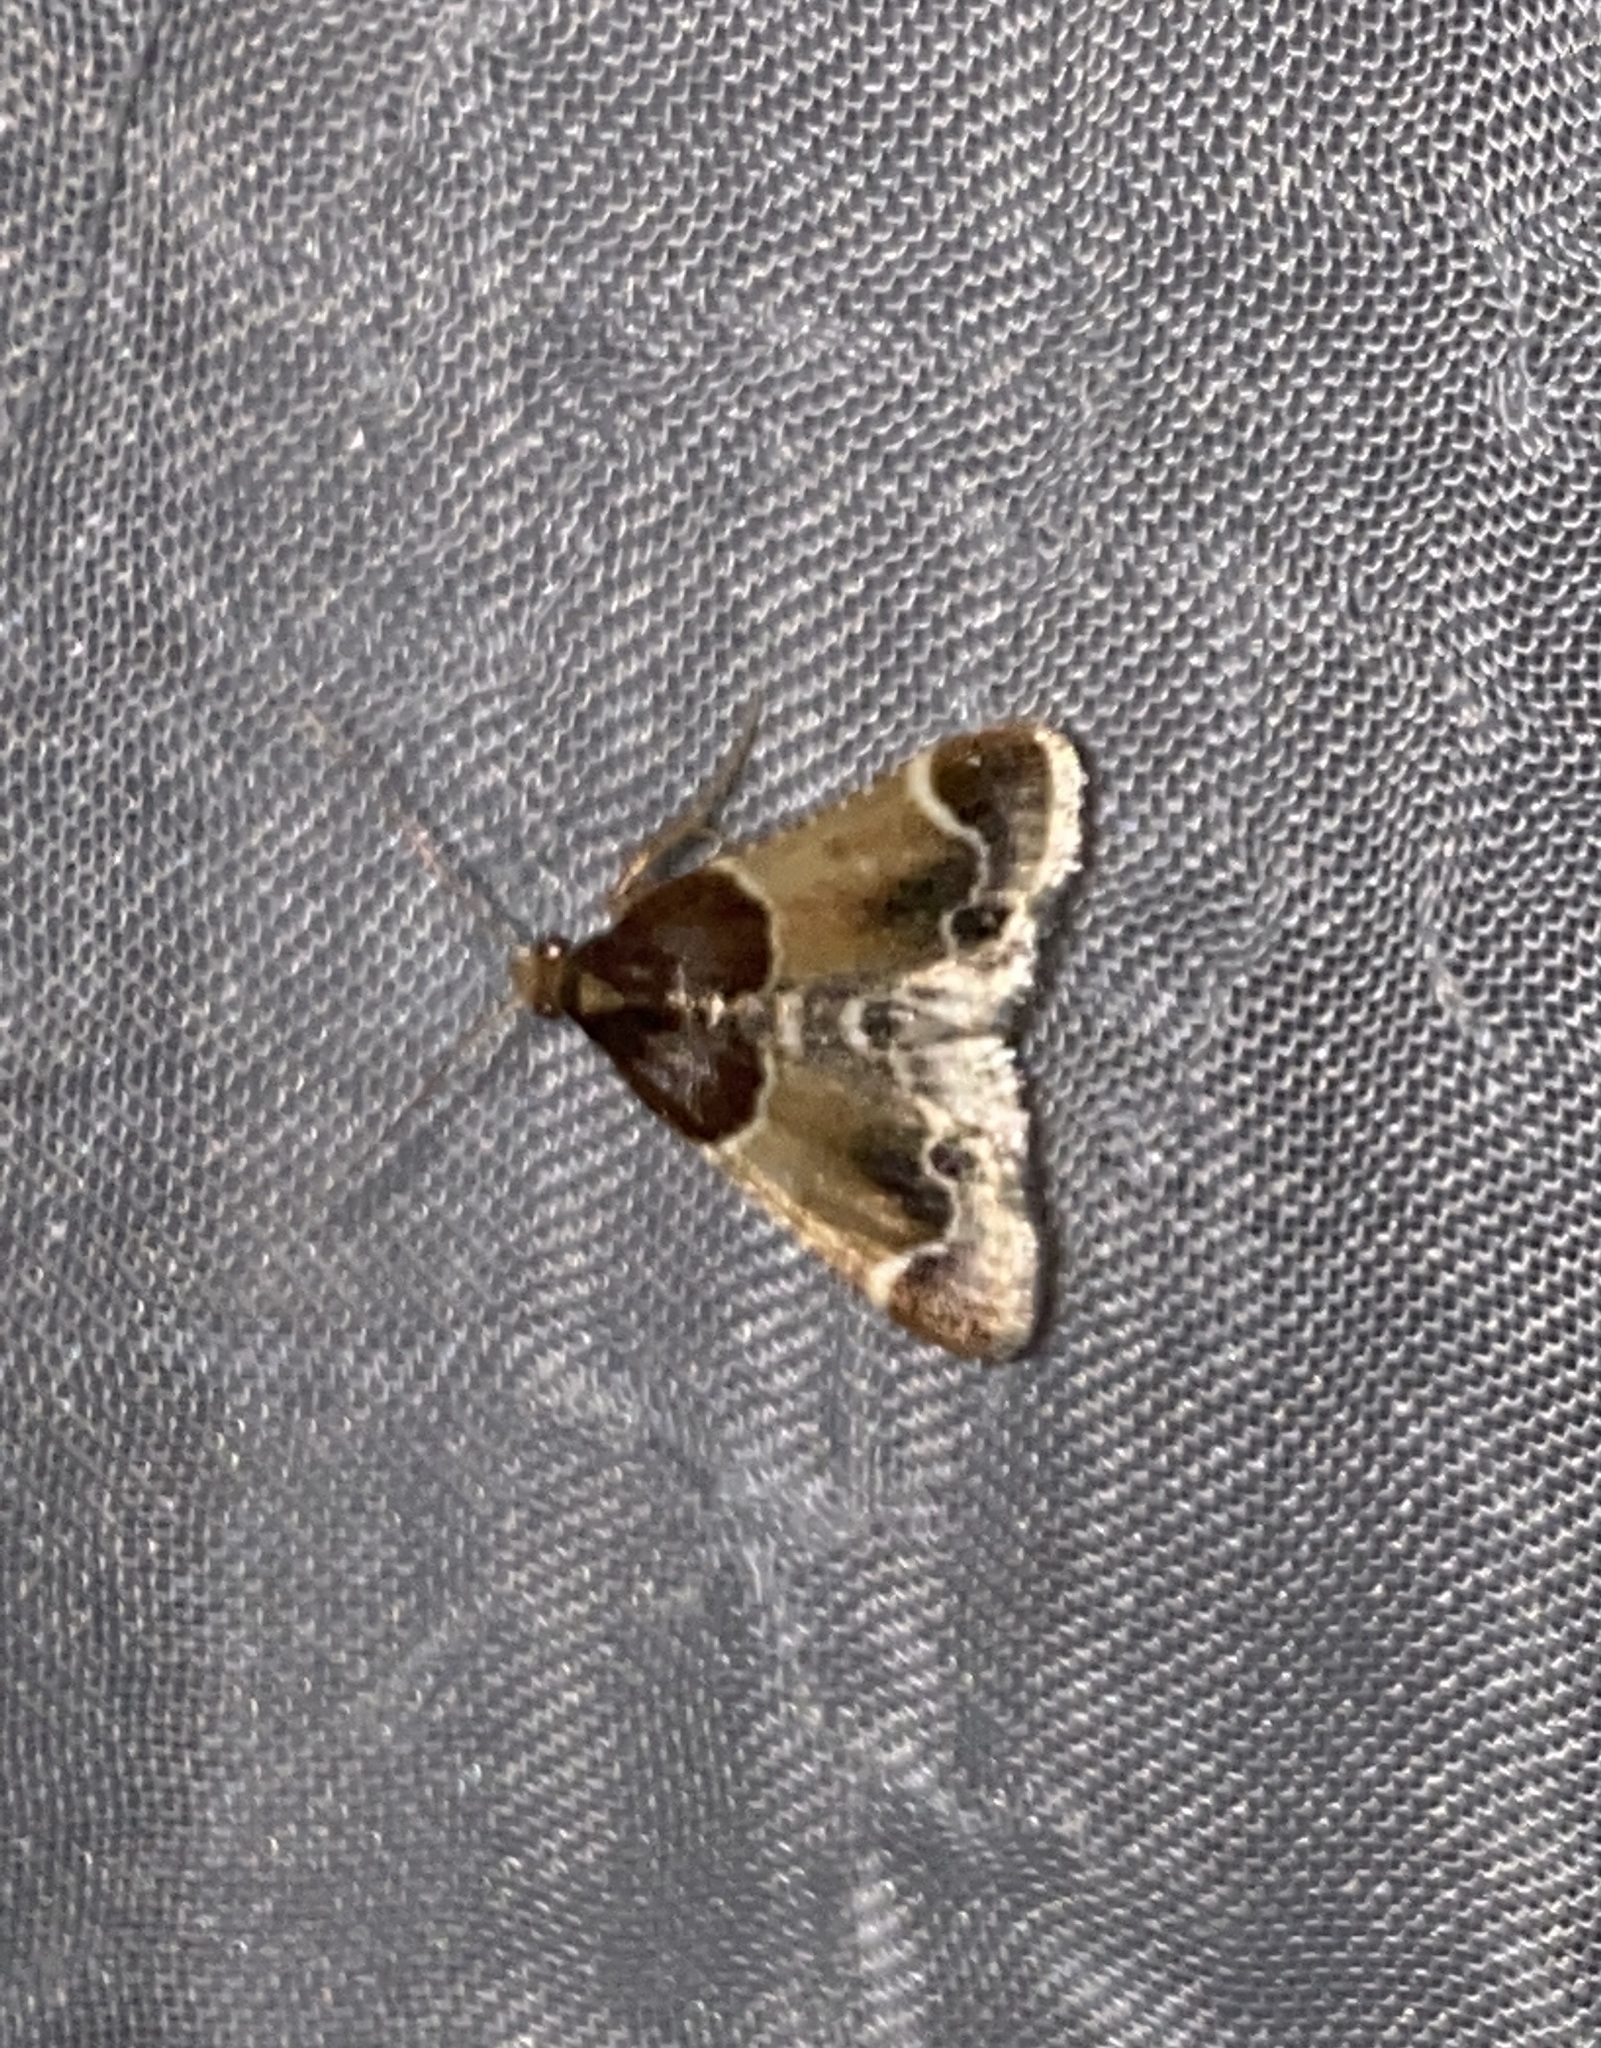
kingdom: Animalia
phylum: Arthropoda
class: Insecta
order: Lepidoptera
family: Pyralidae
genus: Pyralis
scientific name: Pyralis farinalis
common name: Meal moth
